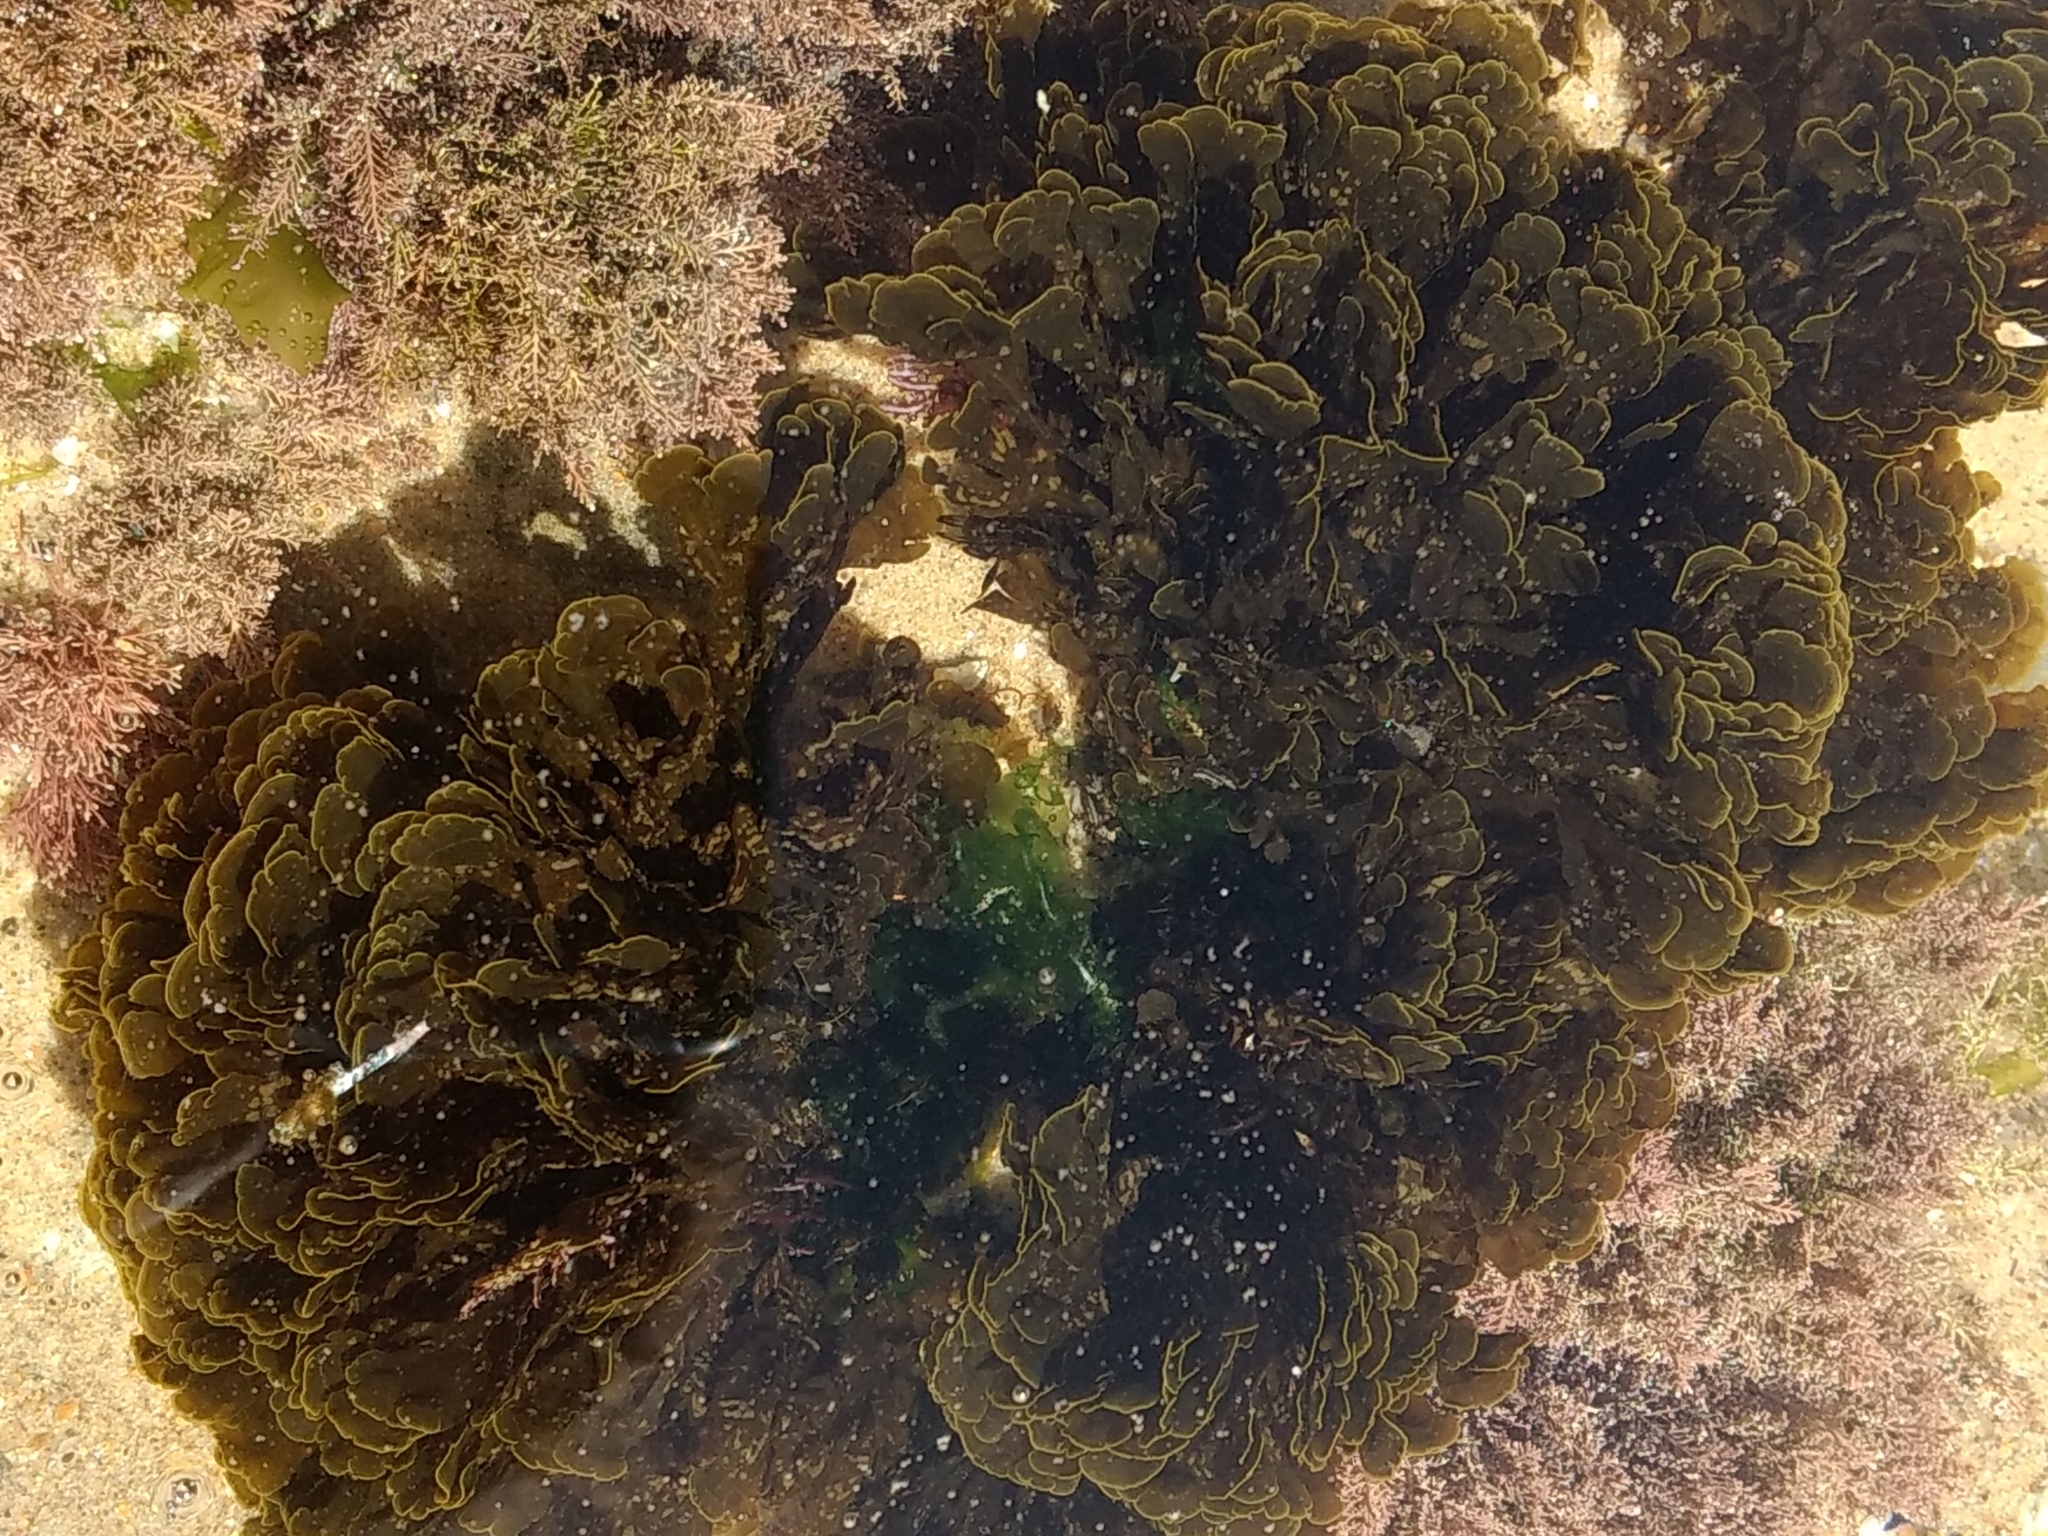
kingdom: Chromista
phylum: Ochrophyta
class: Phaeophyceae
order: Dictyotales
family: Dictyotaceae
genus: Zonaria
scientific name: Zonaria farlowii
